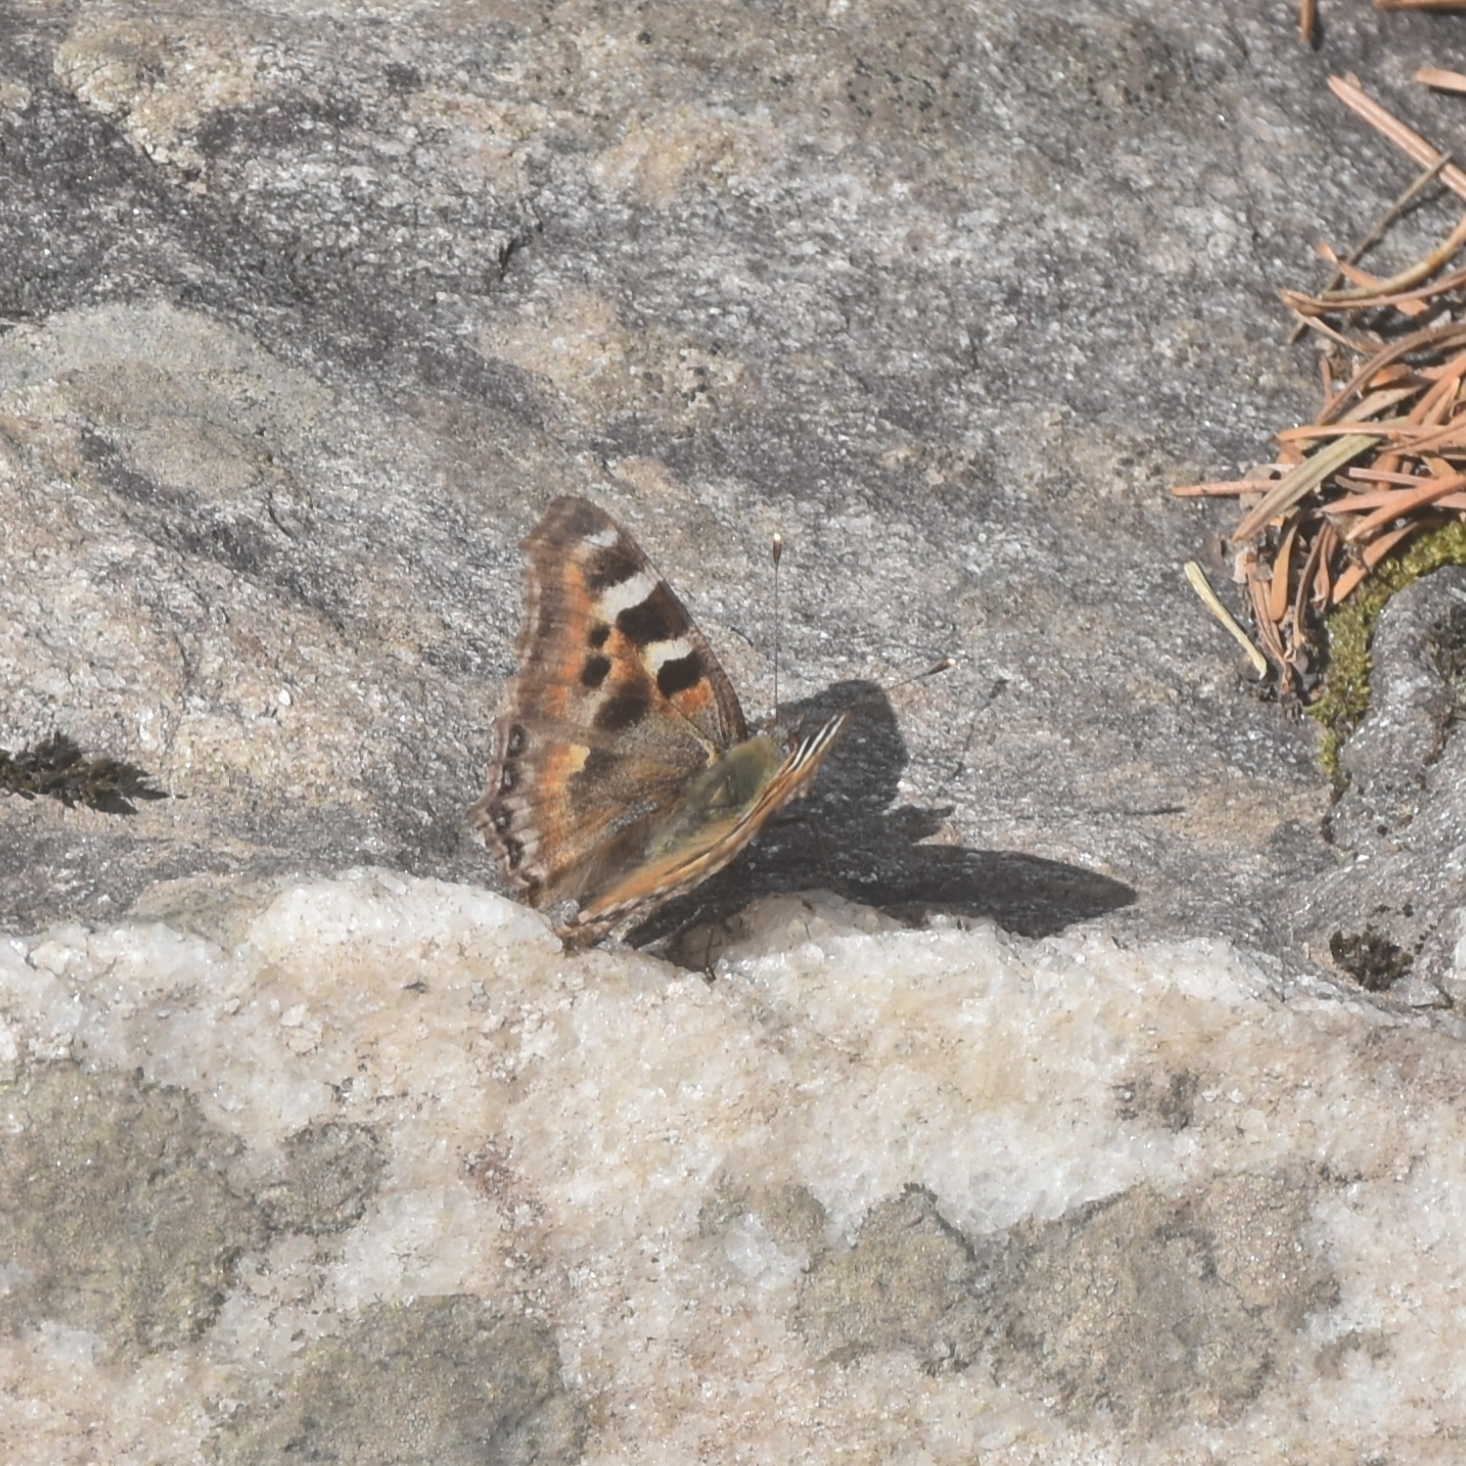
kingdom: Animalia
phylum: Arthropoda
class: Insecta
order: Lepidoptera
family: Nymphalidae
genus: Aglais
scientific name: Aglais caschmirensis
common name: Indian tortoiseshell
